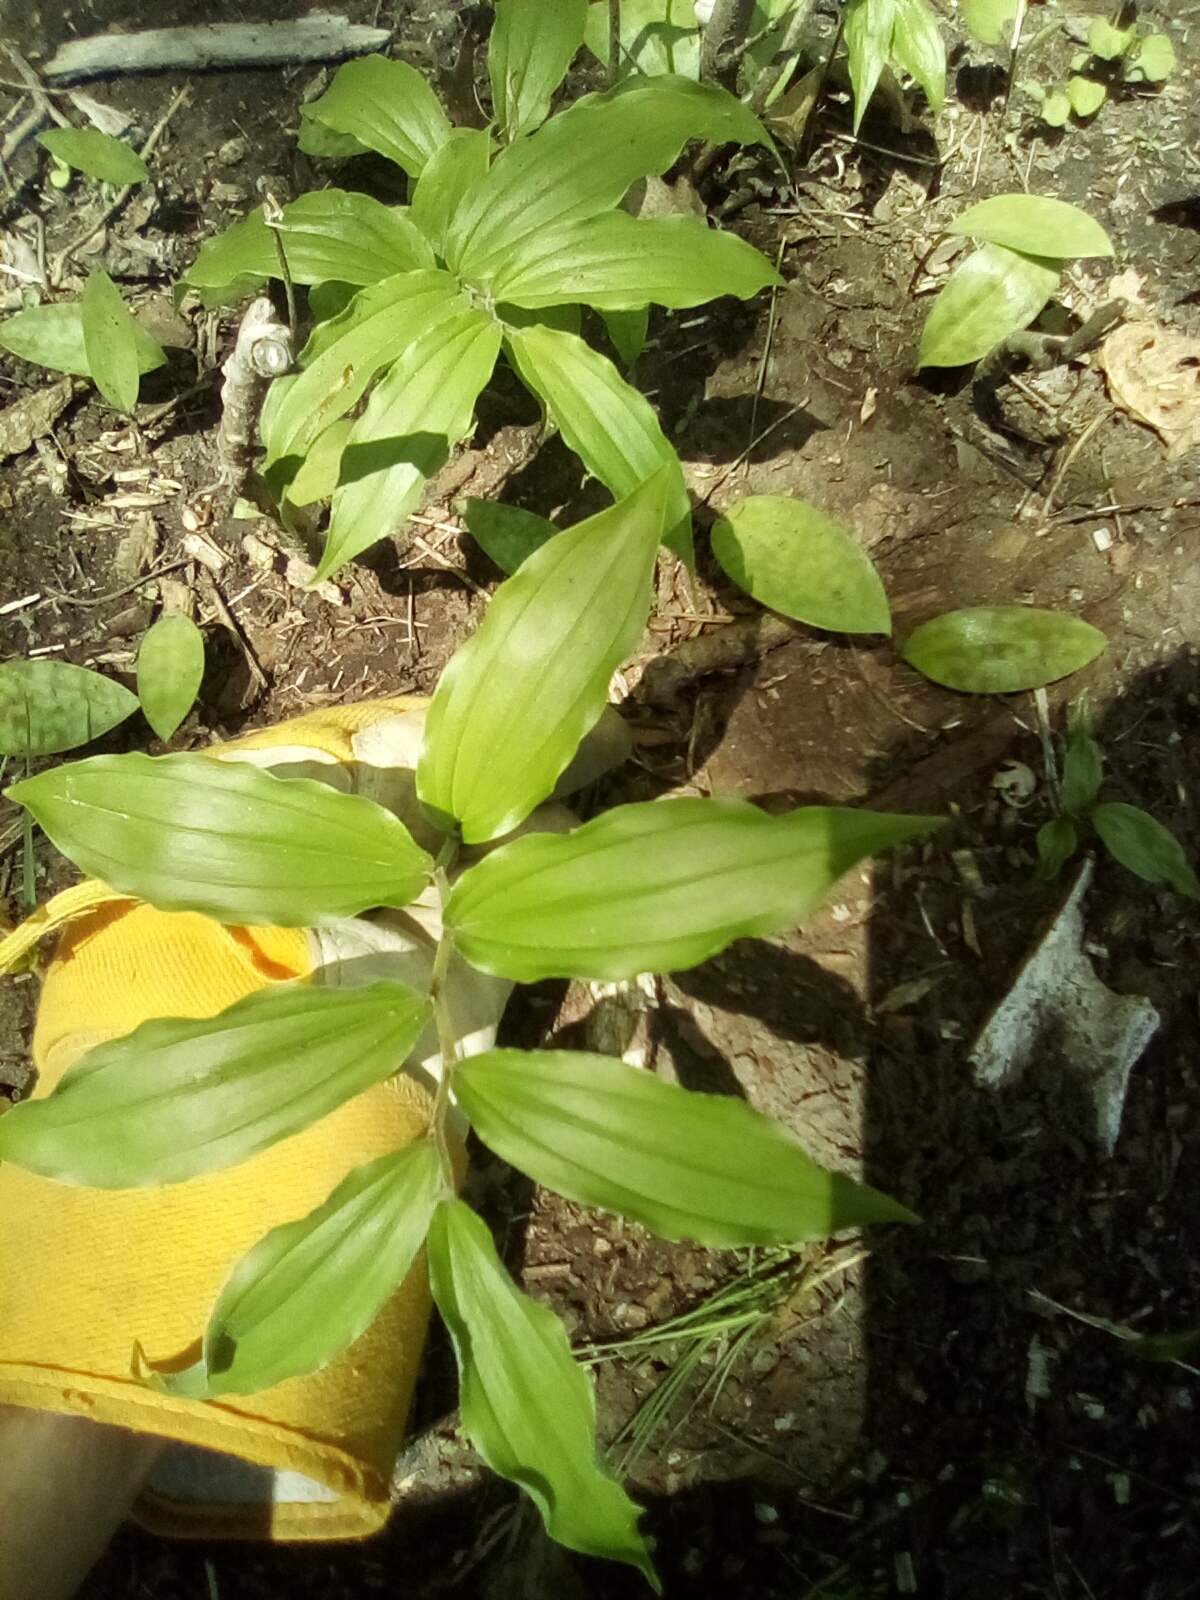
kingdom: Plantae
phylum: Tracheophyta
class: Liliopsida
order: Asparagales
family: Asparagaceae
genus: Maianthemum
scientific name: Maianthemum racemosum
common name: False spikenard
